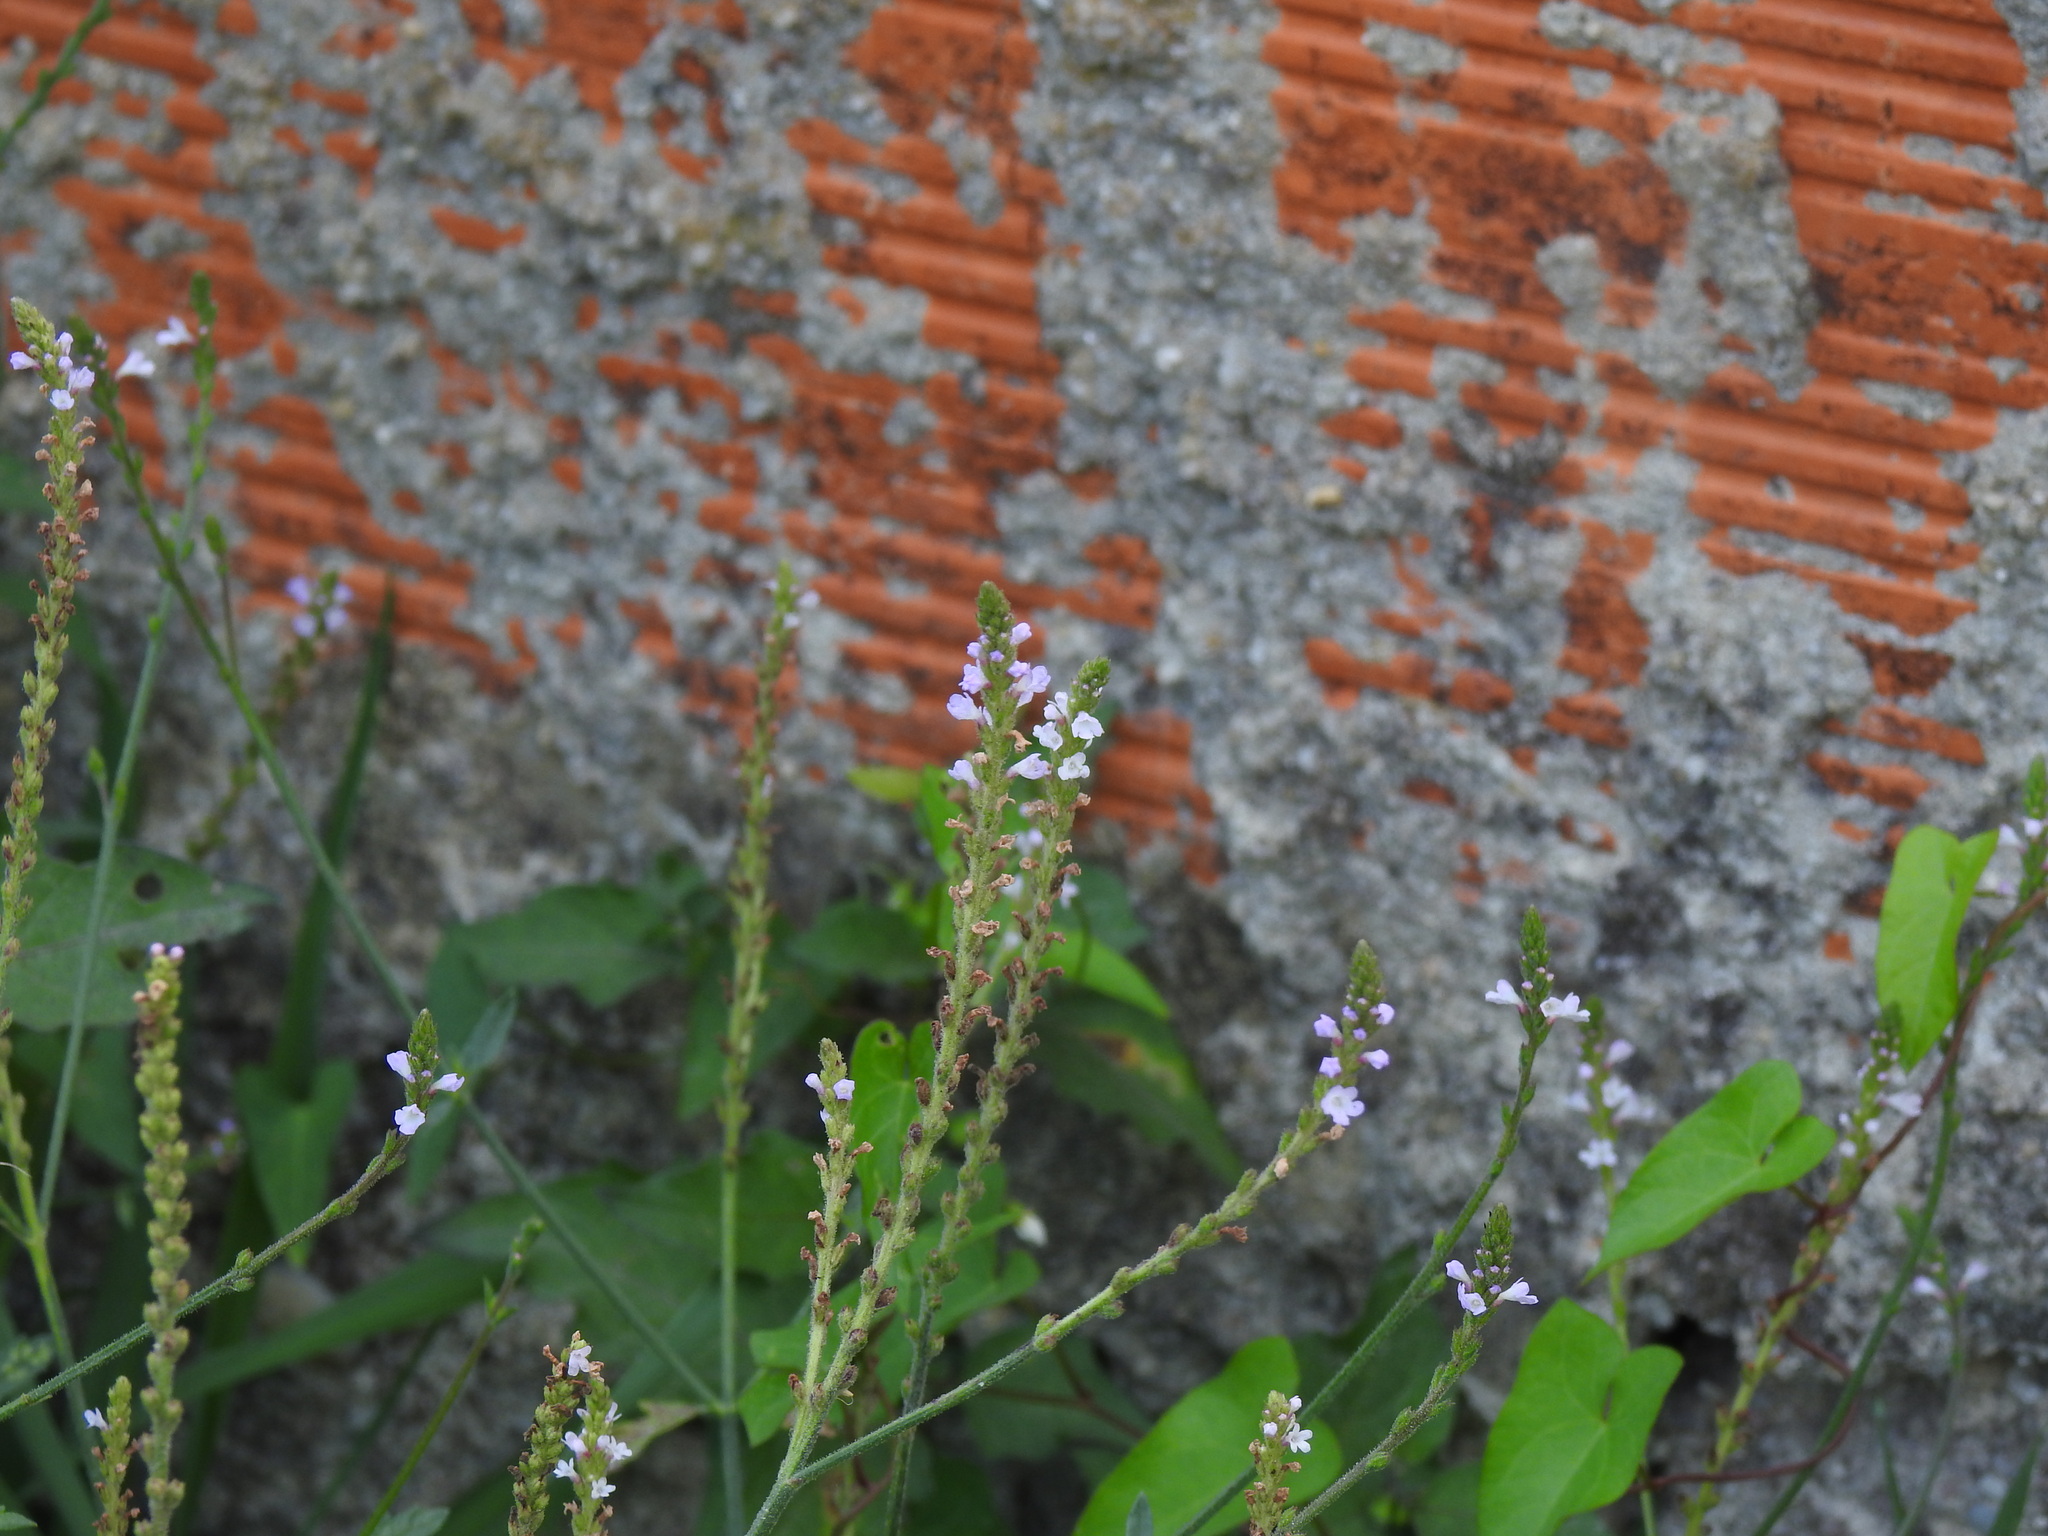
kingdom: Plantae
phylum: Tracheophyta
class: Magnoliopsida
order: Lamiales
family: Verbenaceae
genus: Verbena
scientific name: Verbena officinalis
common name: Vervain
